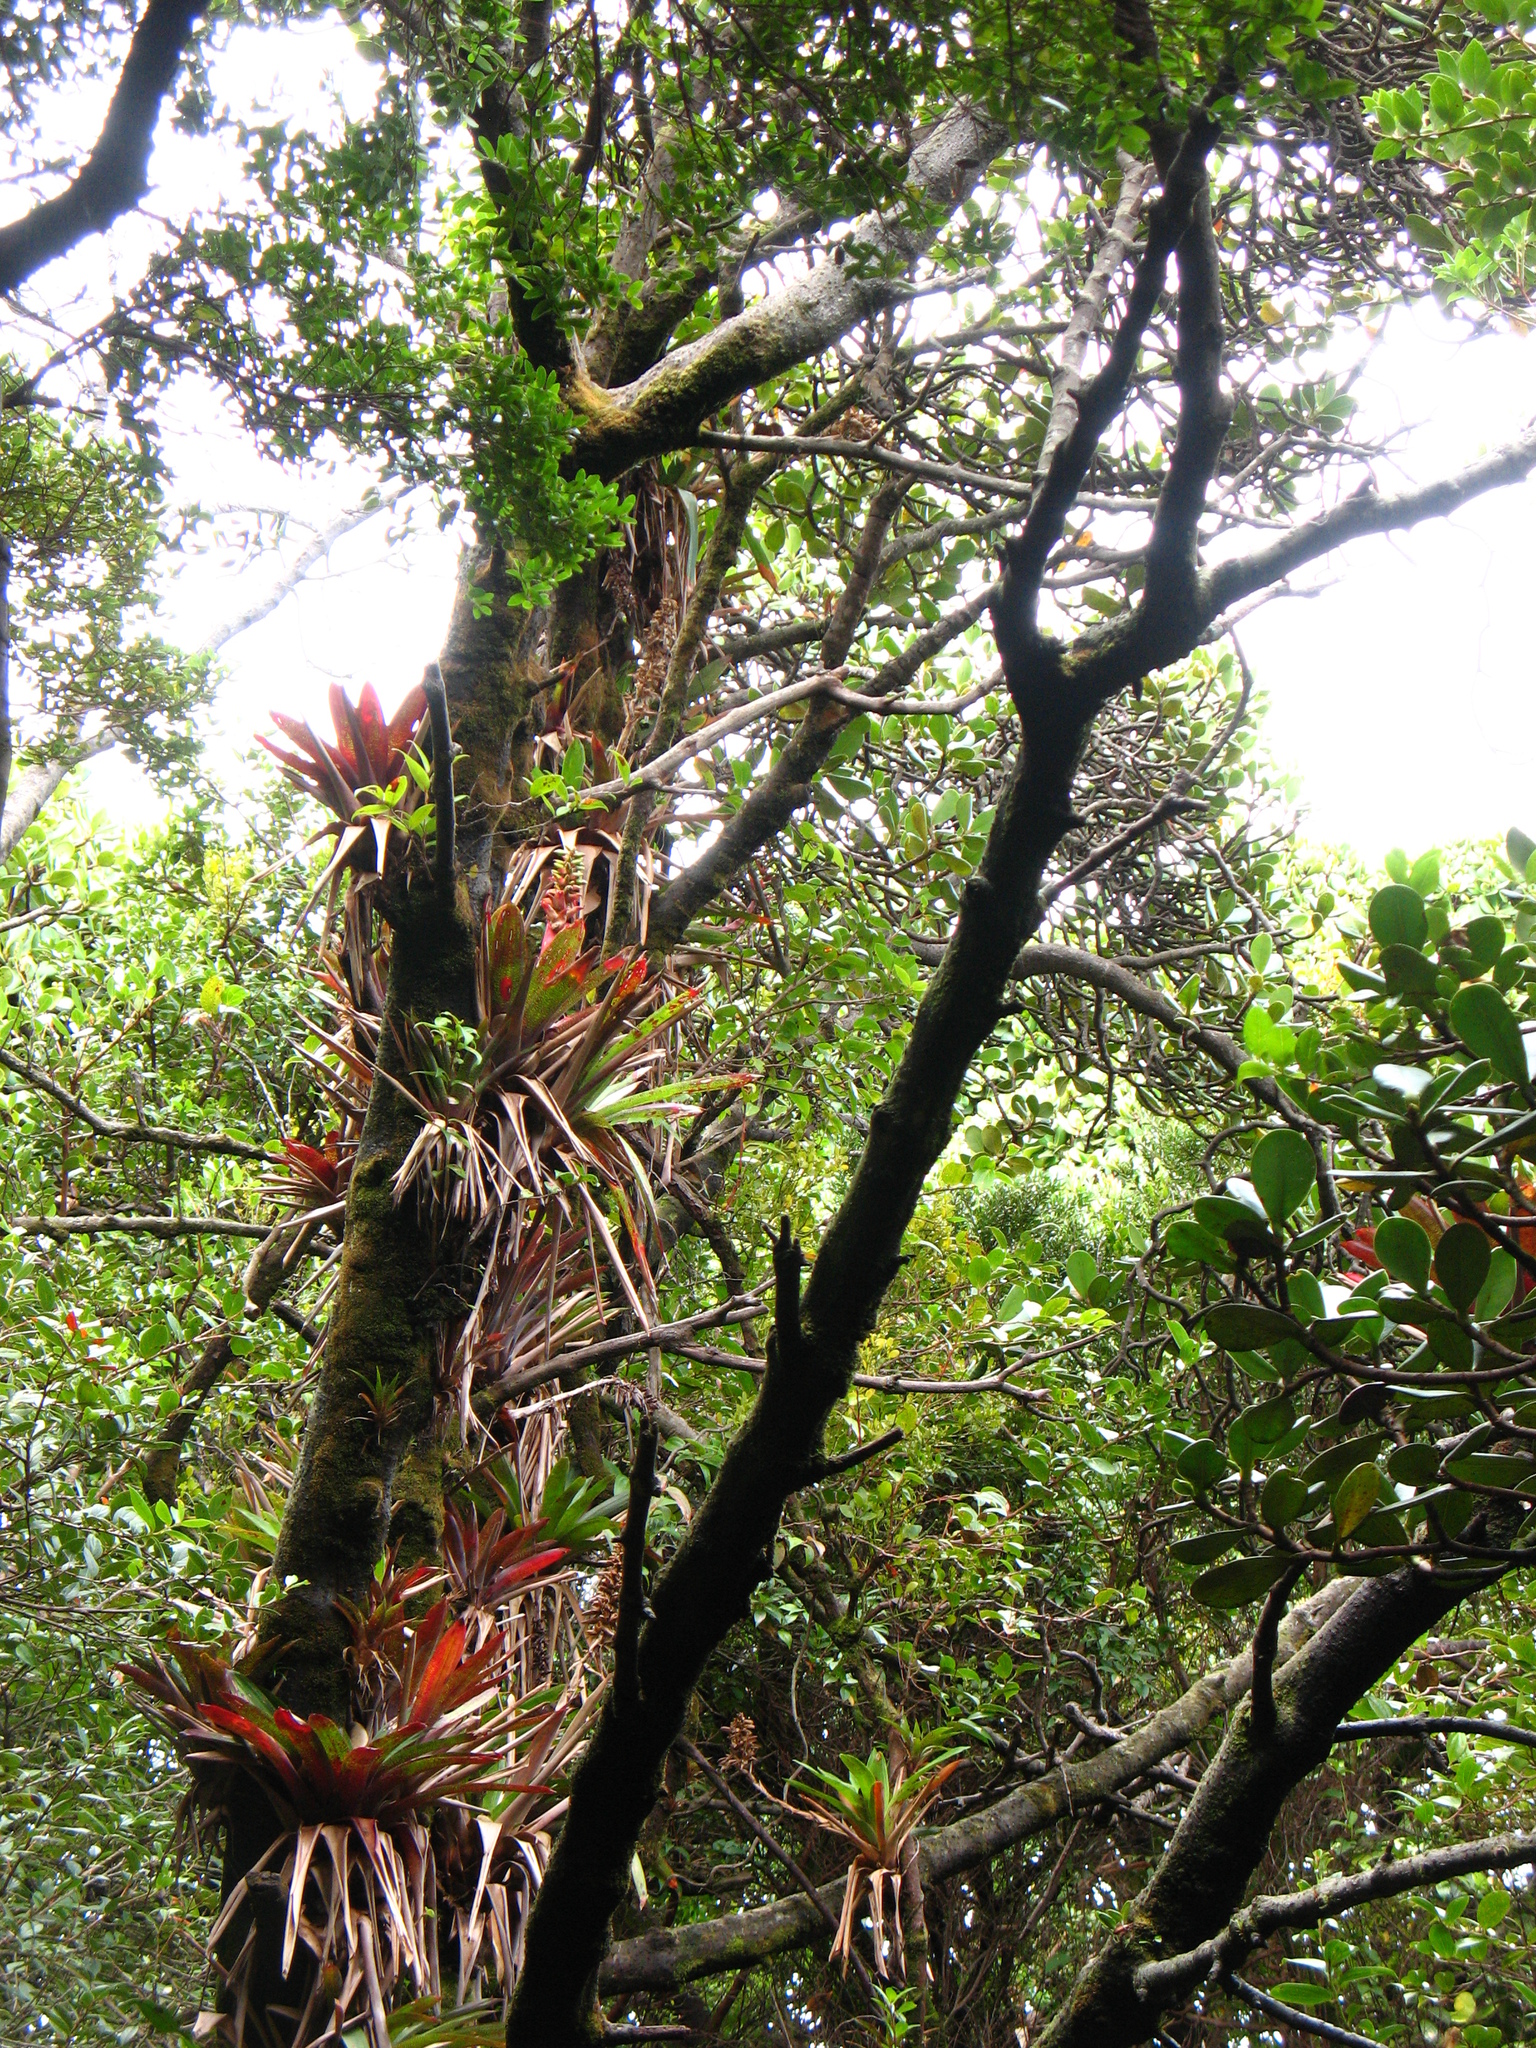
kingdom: Plantae
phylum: Tracheophyta
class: Liliopsida
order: Poales
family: Bromeliaceae
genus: Werauhia
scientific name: Werauhia ororiensis
